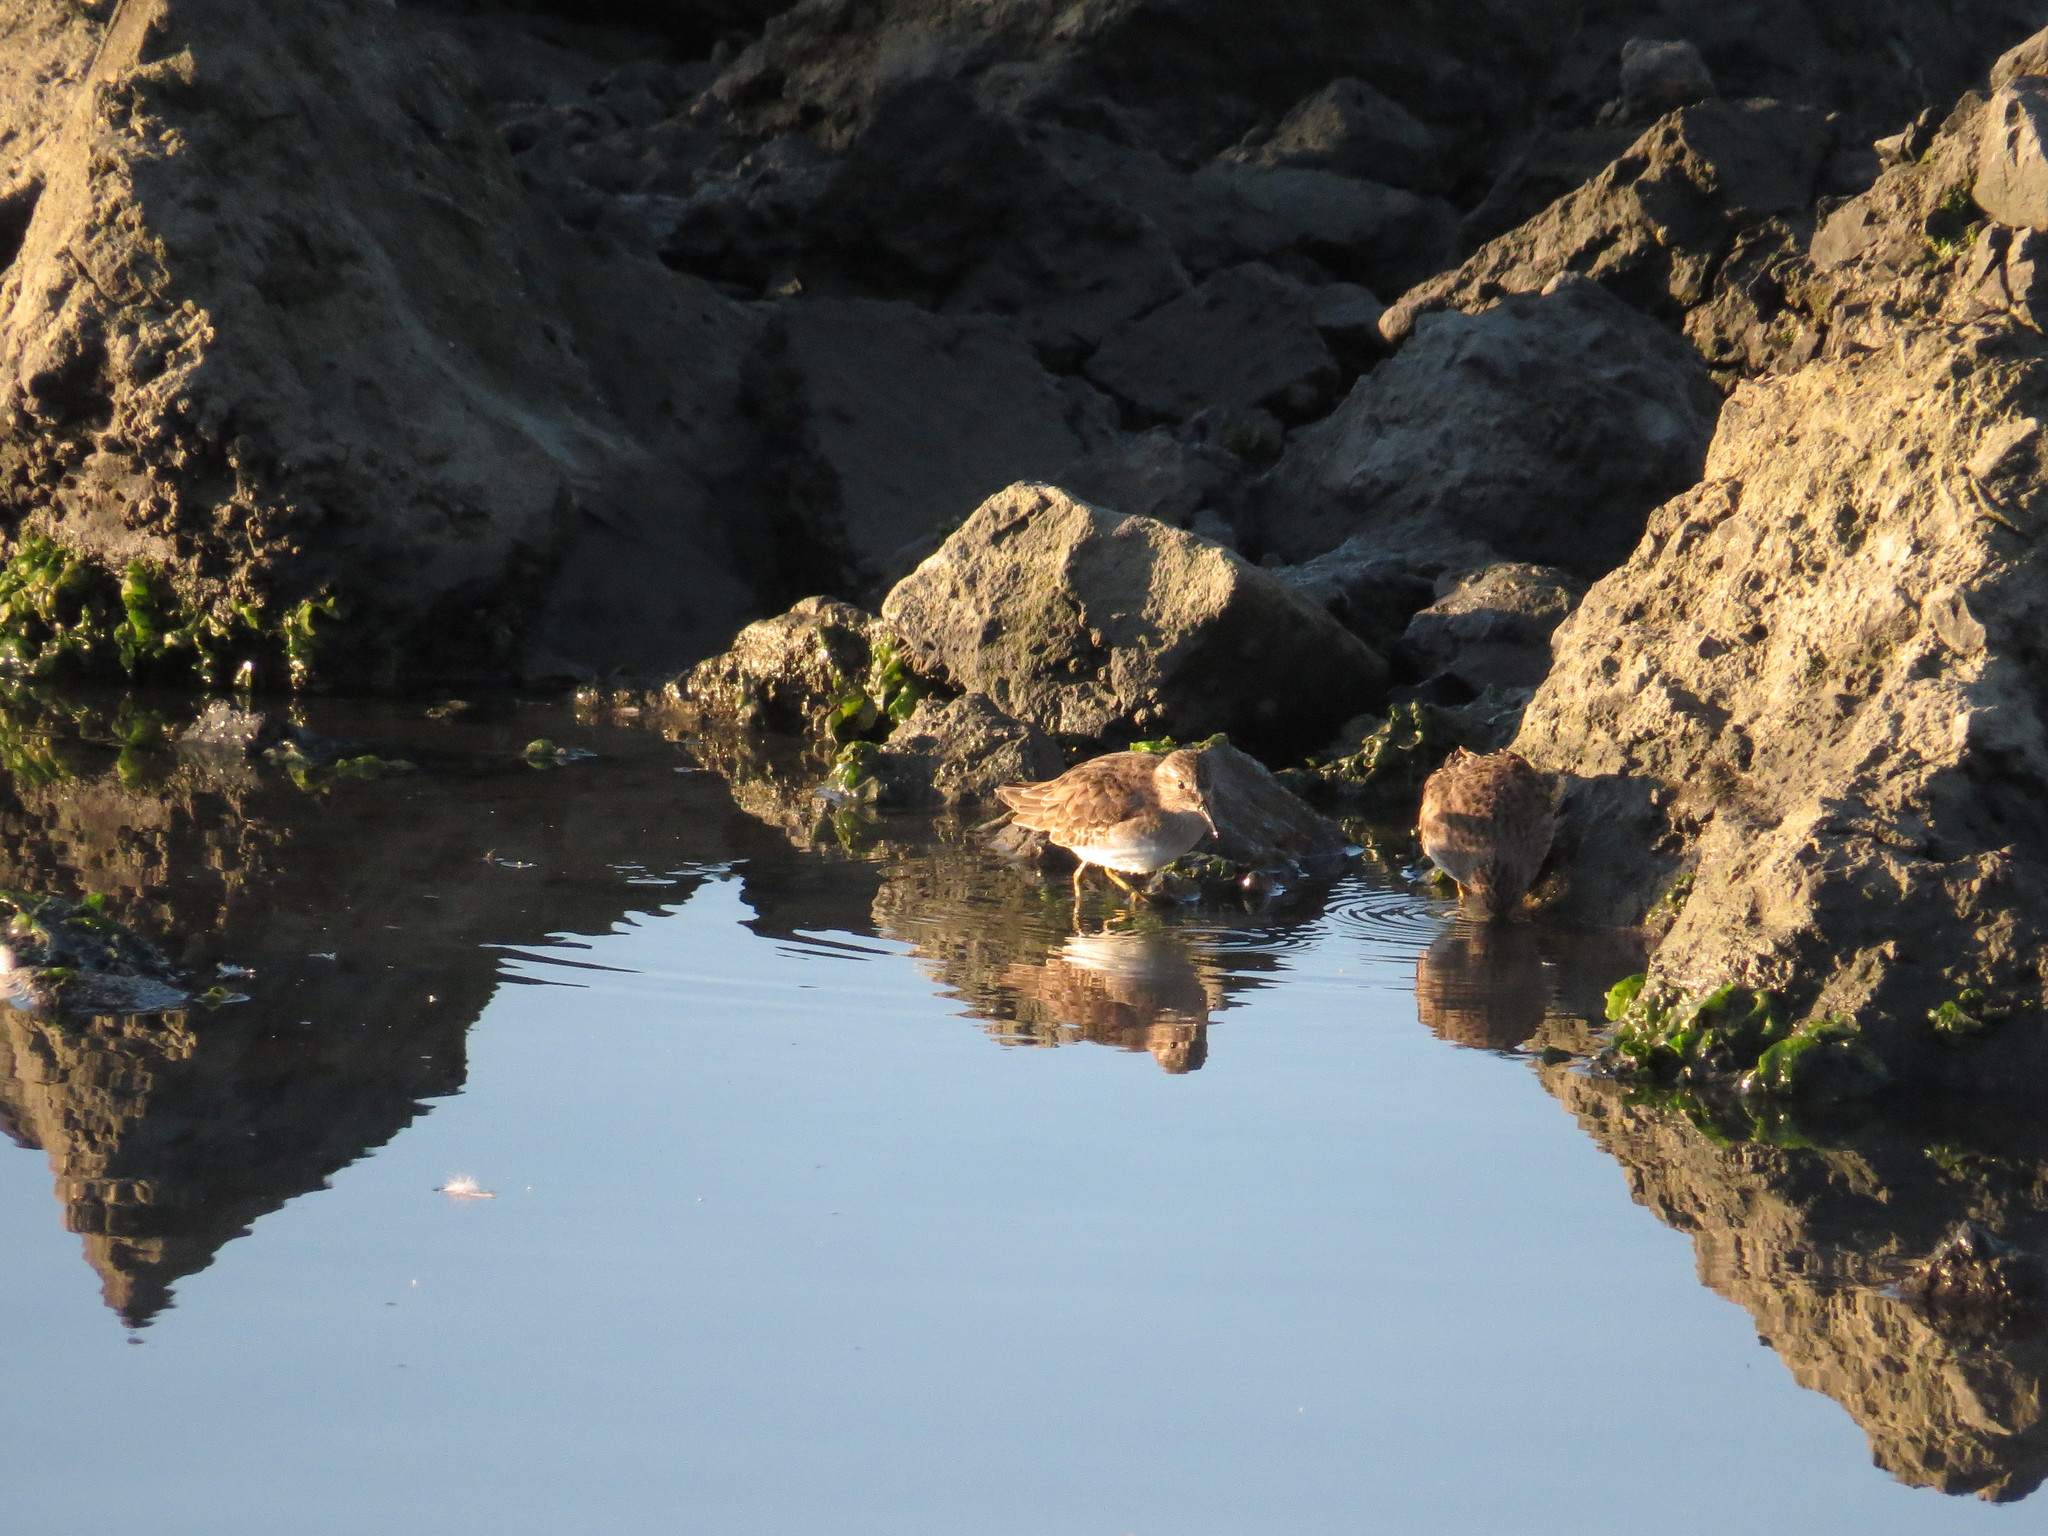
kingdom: Animalia
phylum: Chordata
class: Aves
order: Charadriiformes
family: Scolopacidae
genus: Calidris
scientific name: Calidris minutilla
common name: Least sandpiper
